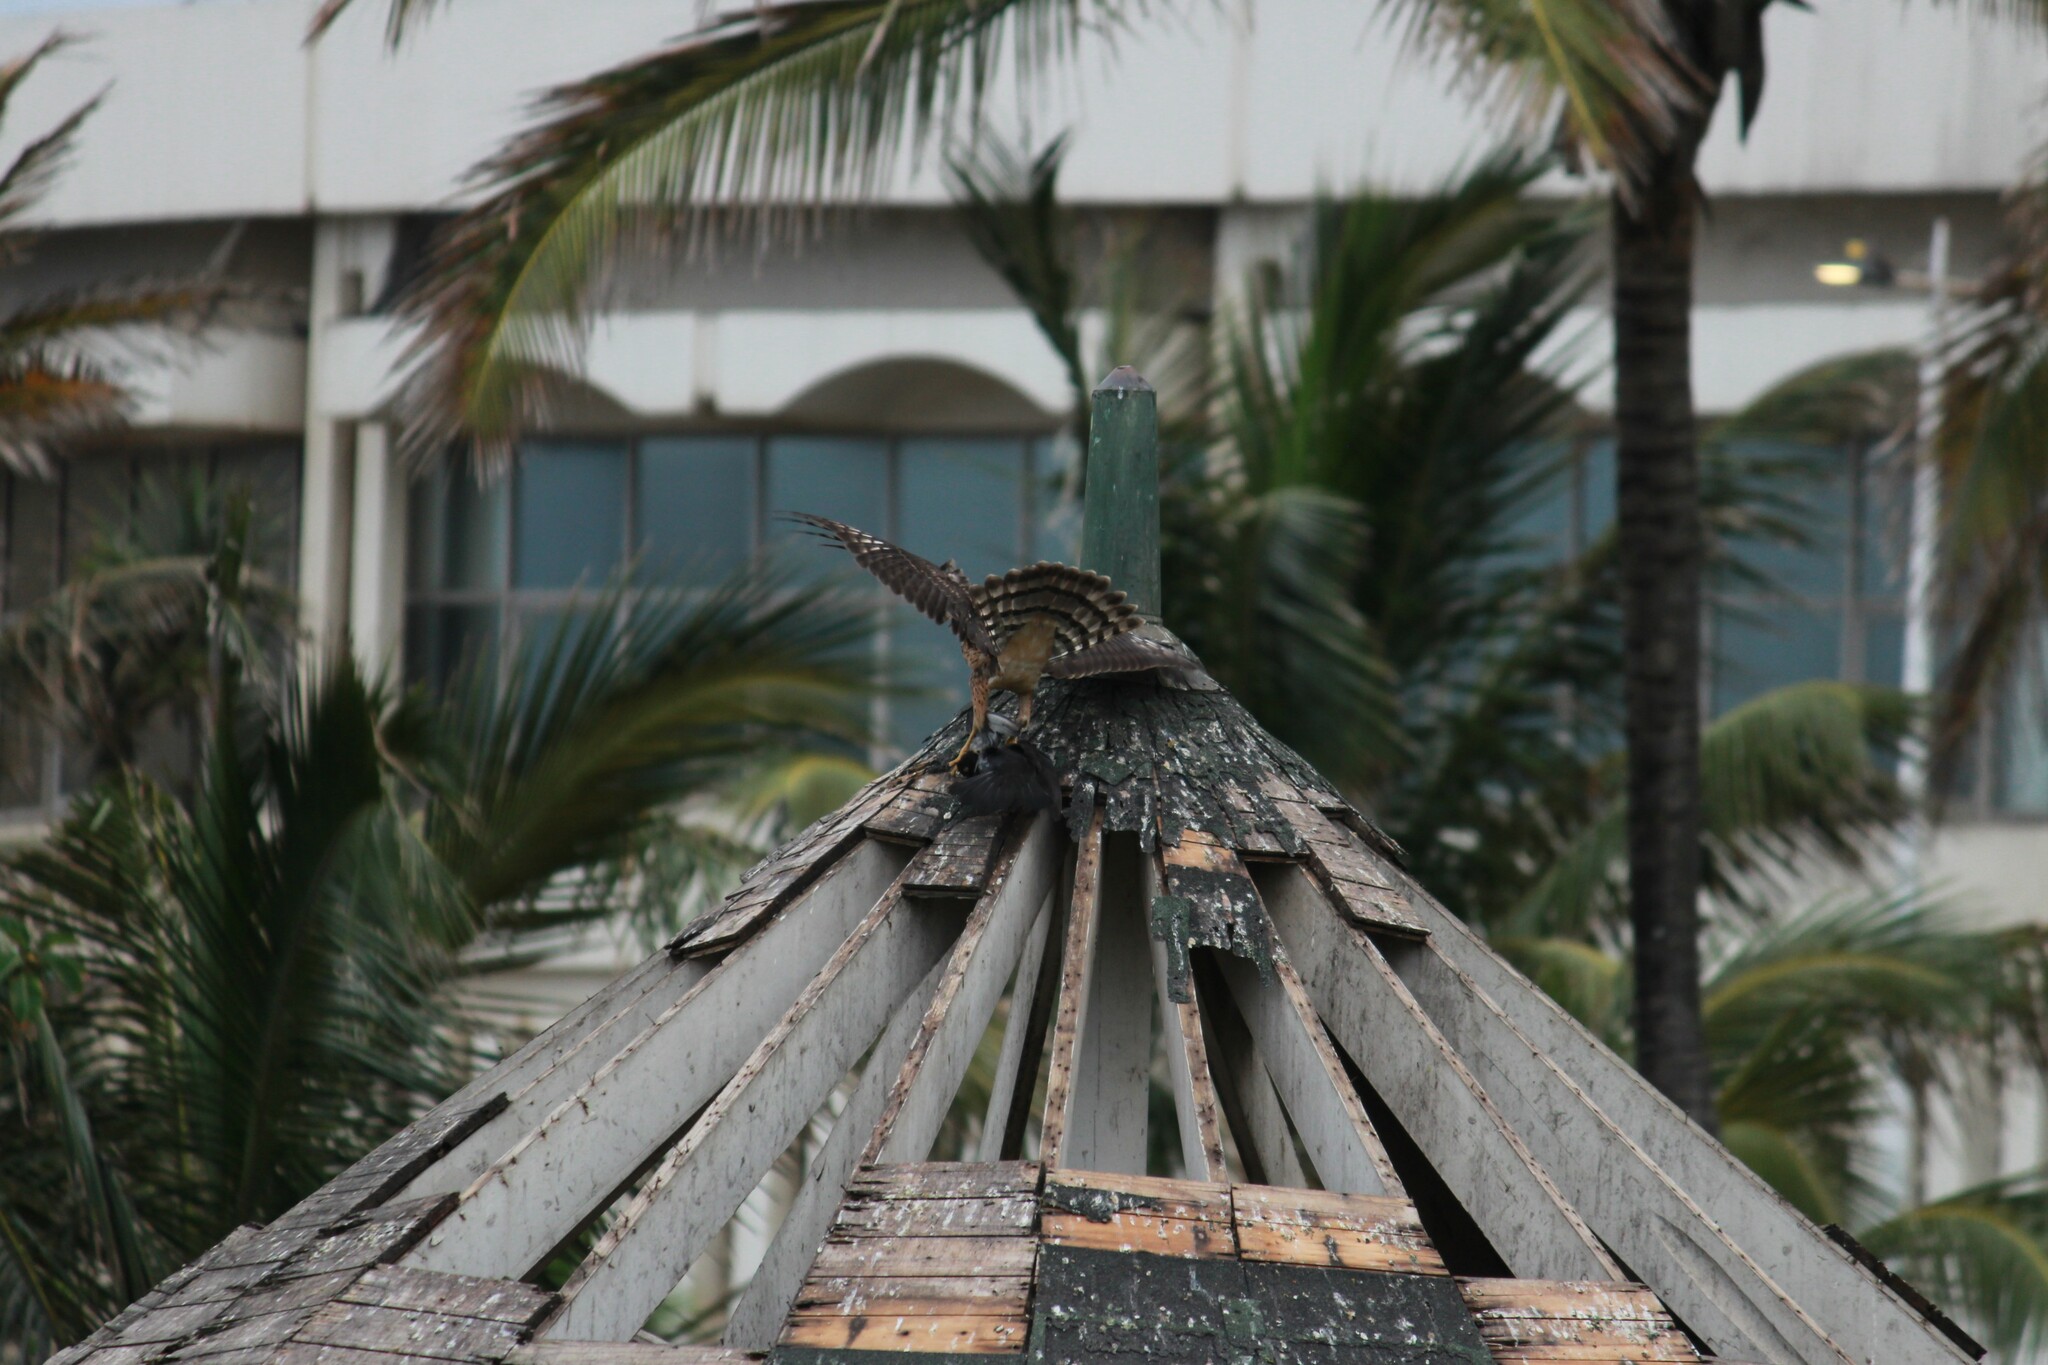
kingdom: Animalia
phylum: Chordata
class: Aves
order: Accipitriformes
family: Accipitridae
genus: Accipiter
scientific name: Accipiter melanoleucus
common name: Black sparrowhawk
